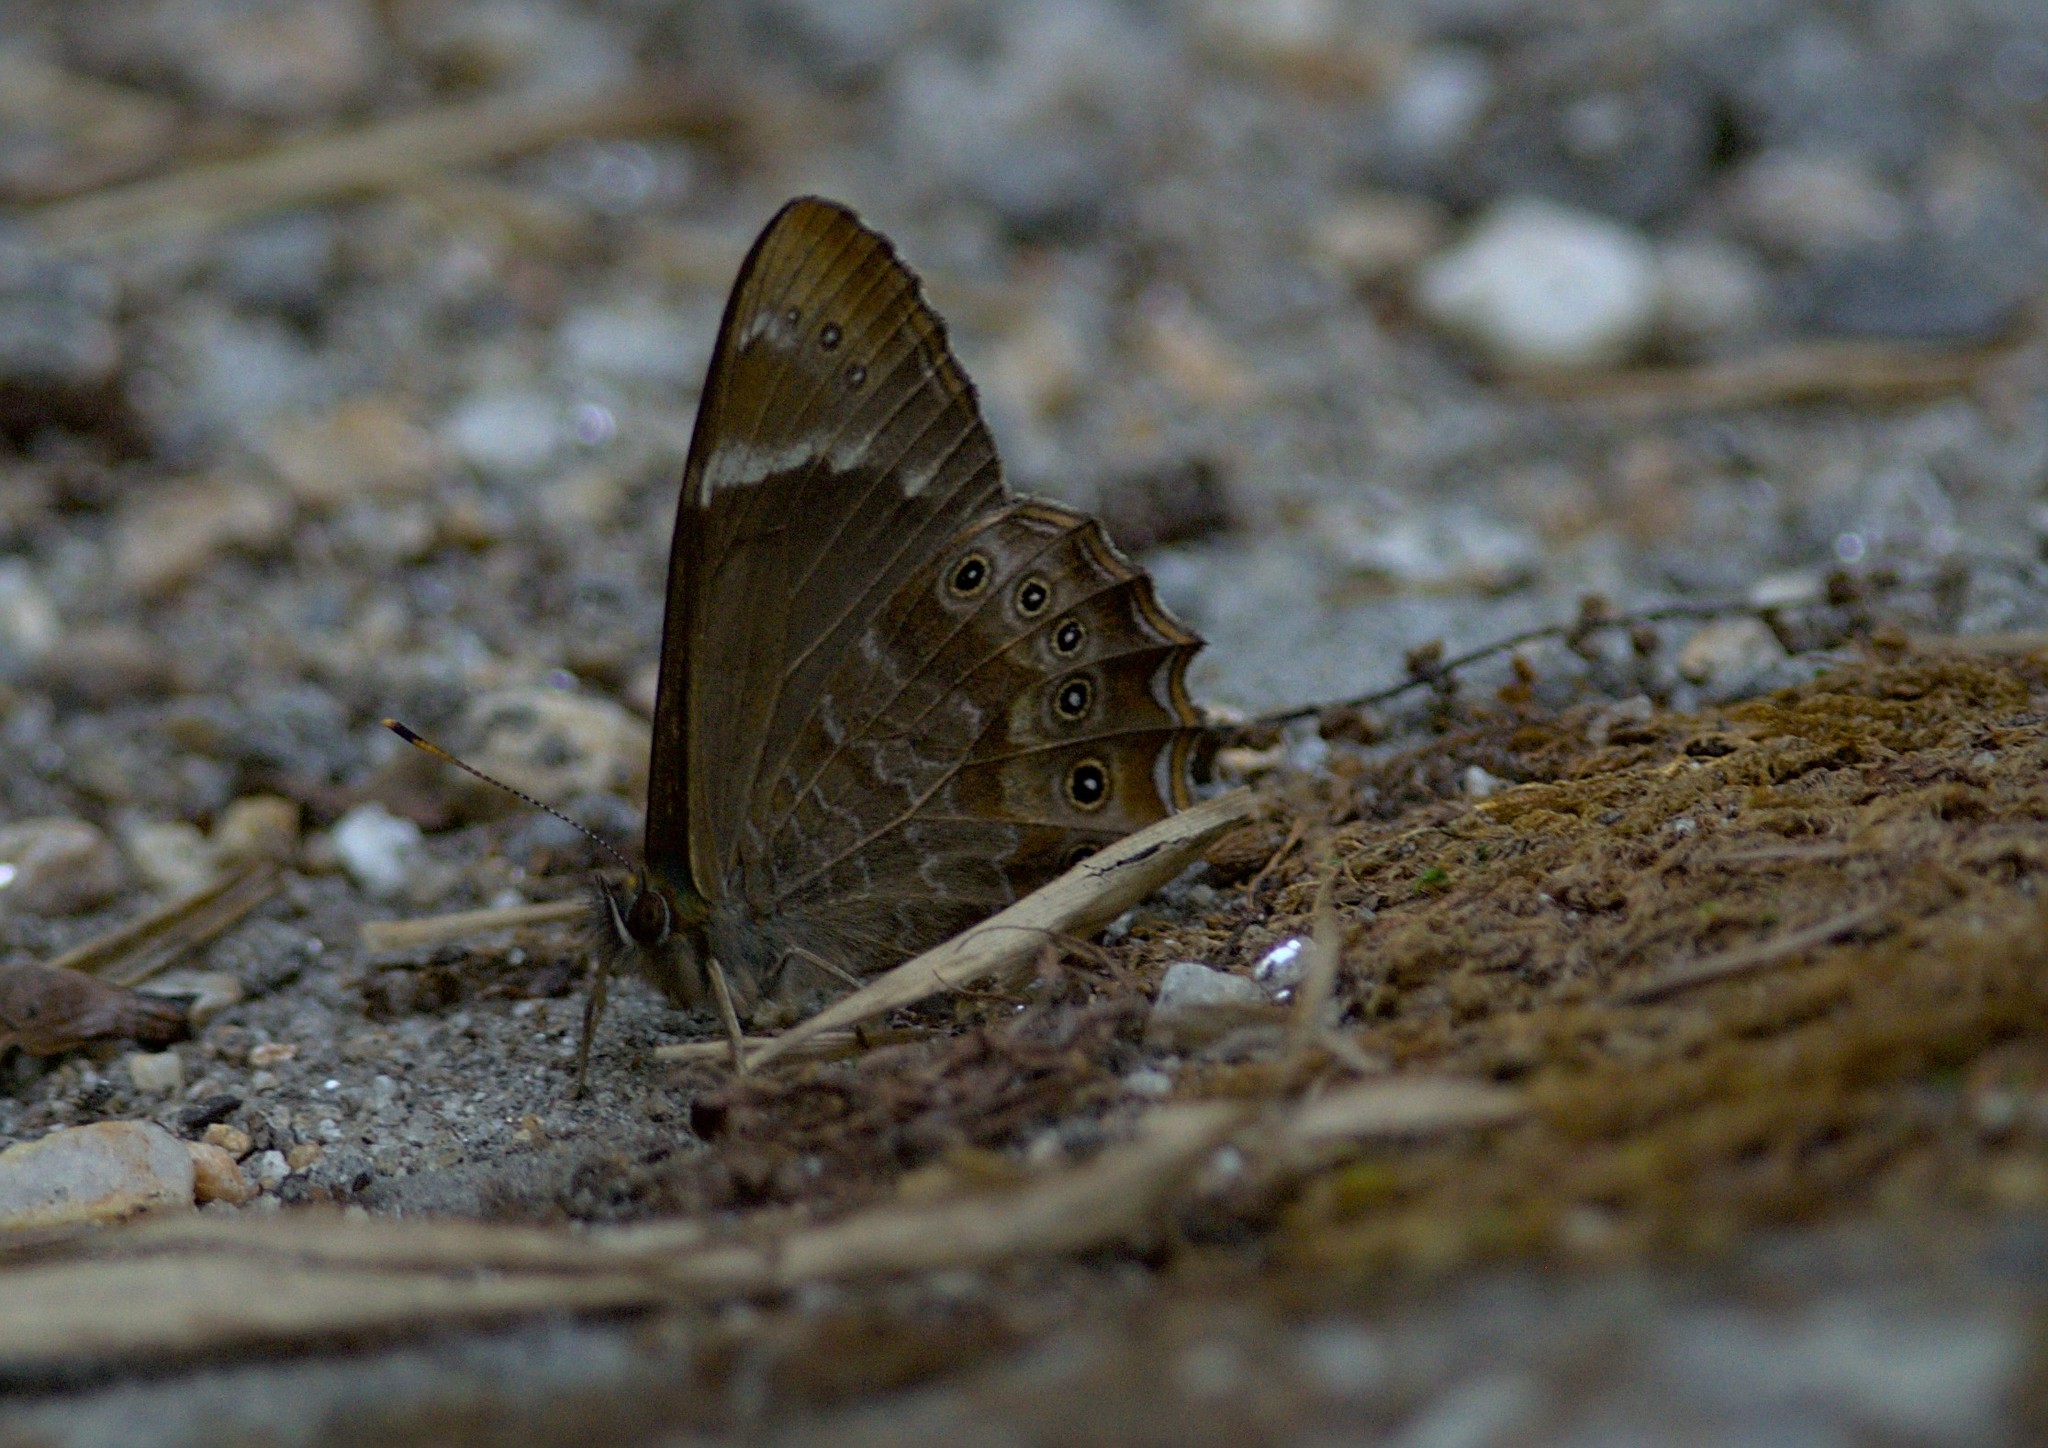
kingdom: Animalia
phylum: Arthropoda
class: Insecta
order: Lepidoptera
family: Nymphalidae
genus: Lethe
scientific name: Lethe nicetas
